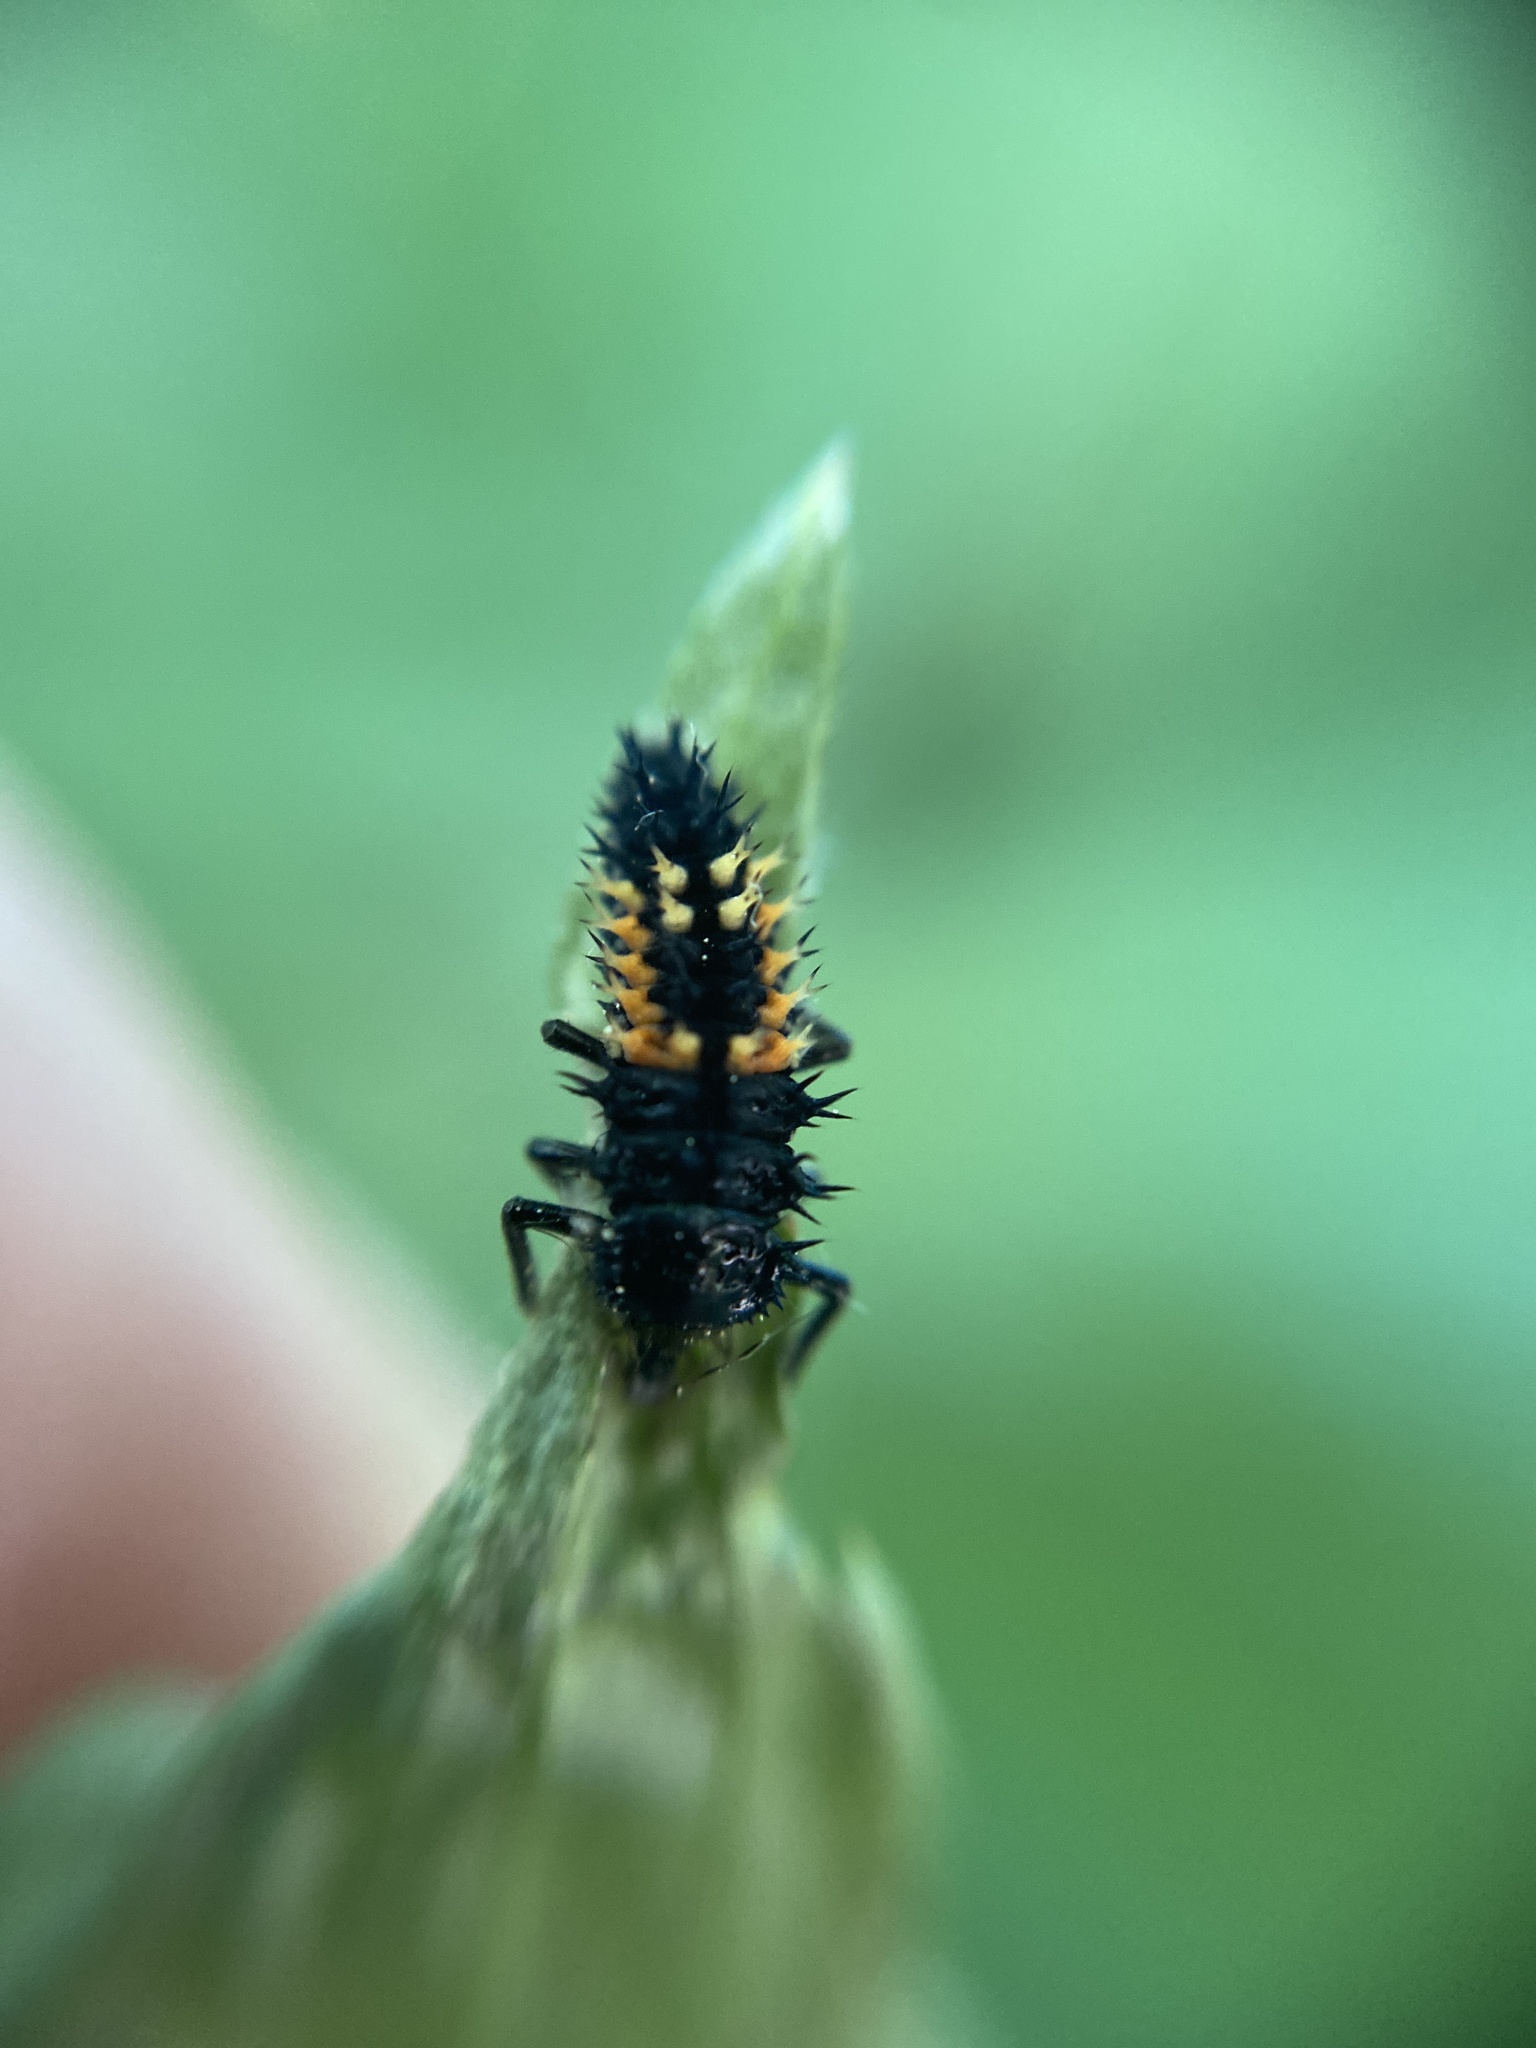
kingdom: Animalia
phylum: Arthropoda
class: Insecta
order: Coleoptera
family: Coccinellidae
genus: Harmonia
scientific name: Harmonia axyridis
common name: Harlequin ladybird
